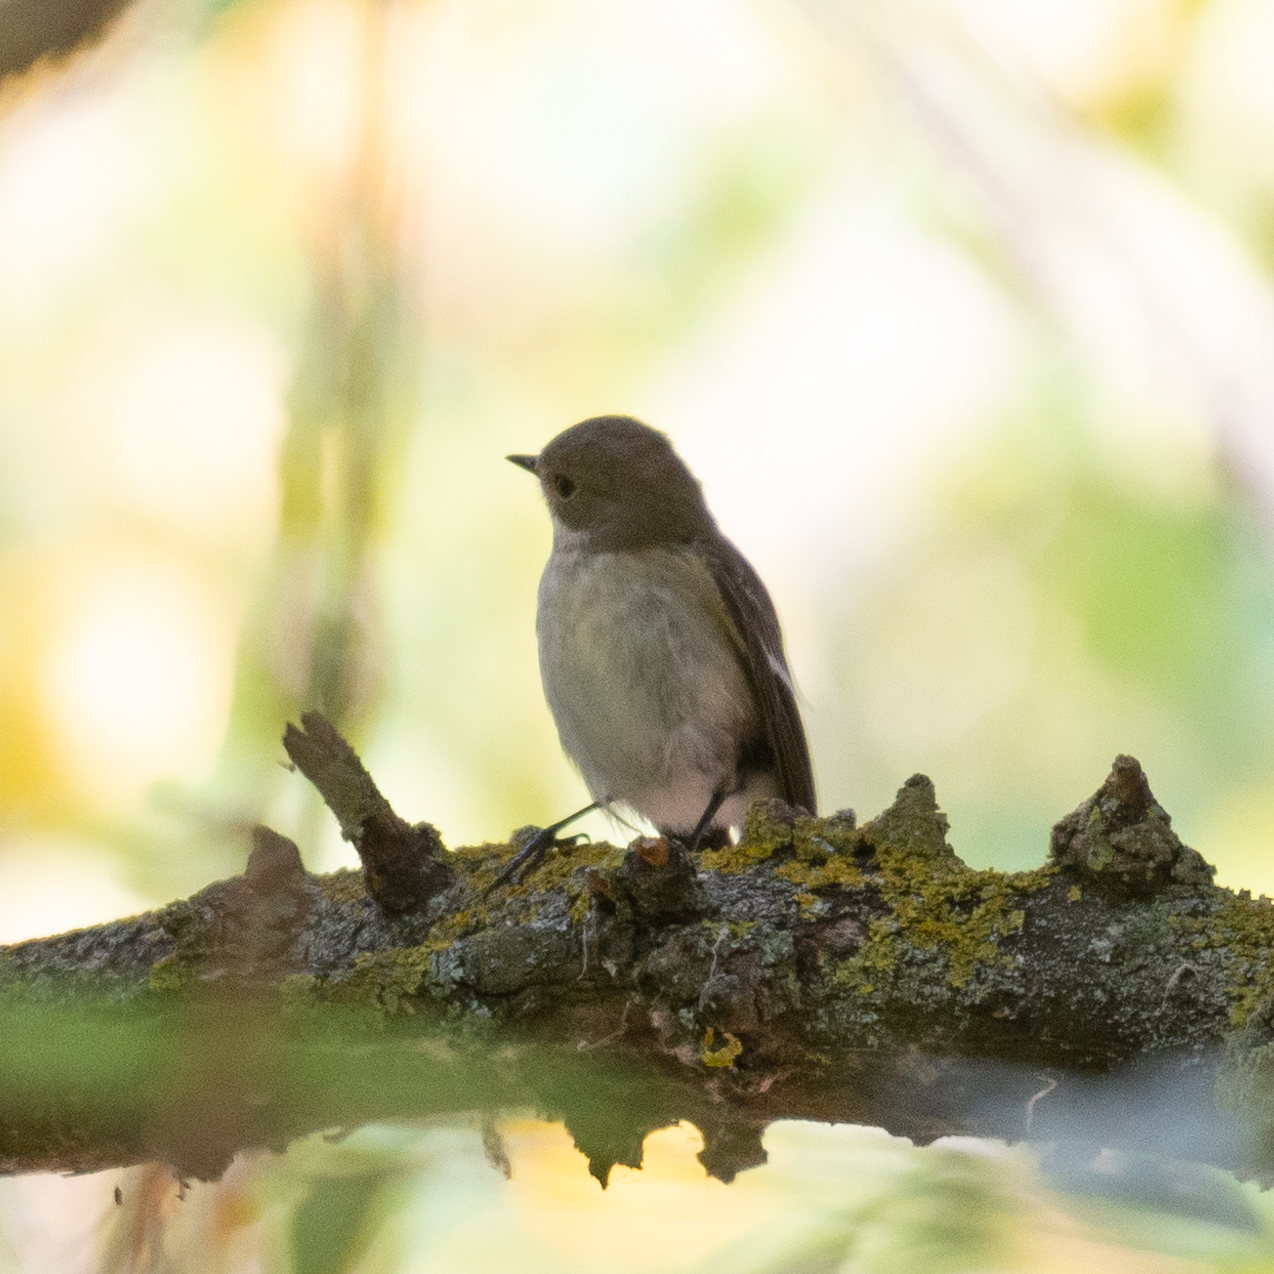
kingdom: Animalia
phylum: Chordata
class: Aves
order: Passeriformes
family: Muscicapidae
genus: Ficedula
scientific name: Ficedula hypoleuca
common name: European pied flycatcher
